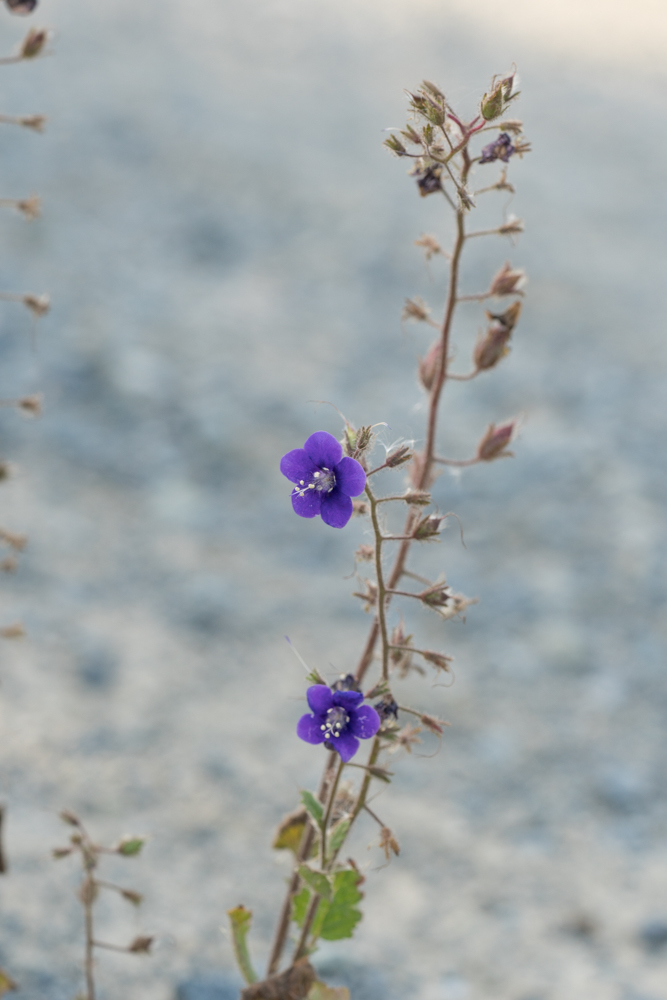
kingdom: Plantae
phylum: Tracheophyta
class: Magnoliopsida
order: Boraginales
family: Hydrophyllaceae
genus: Phacelia
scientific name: Phacelia parryi
